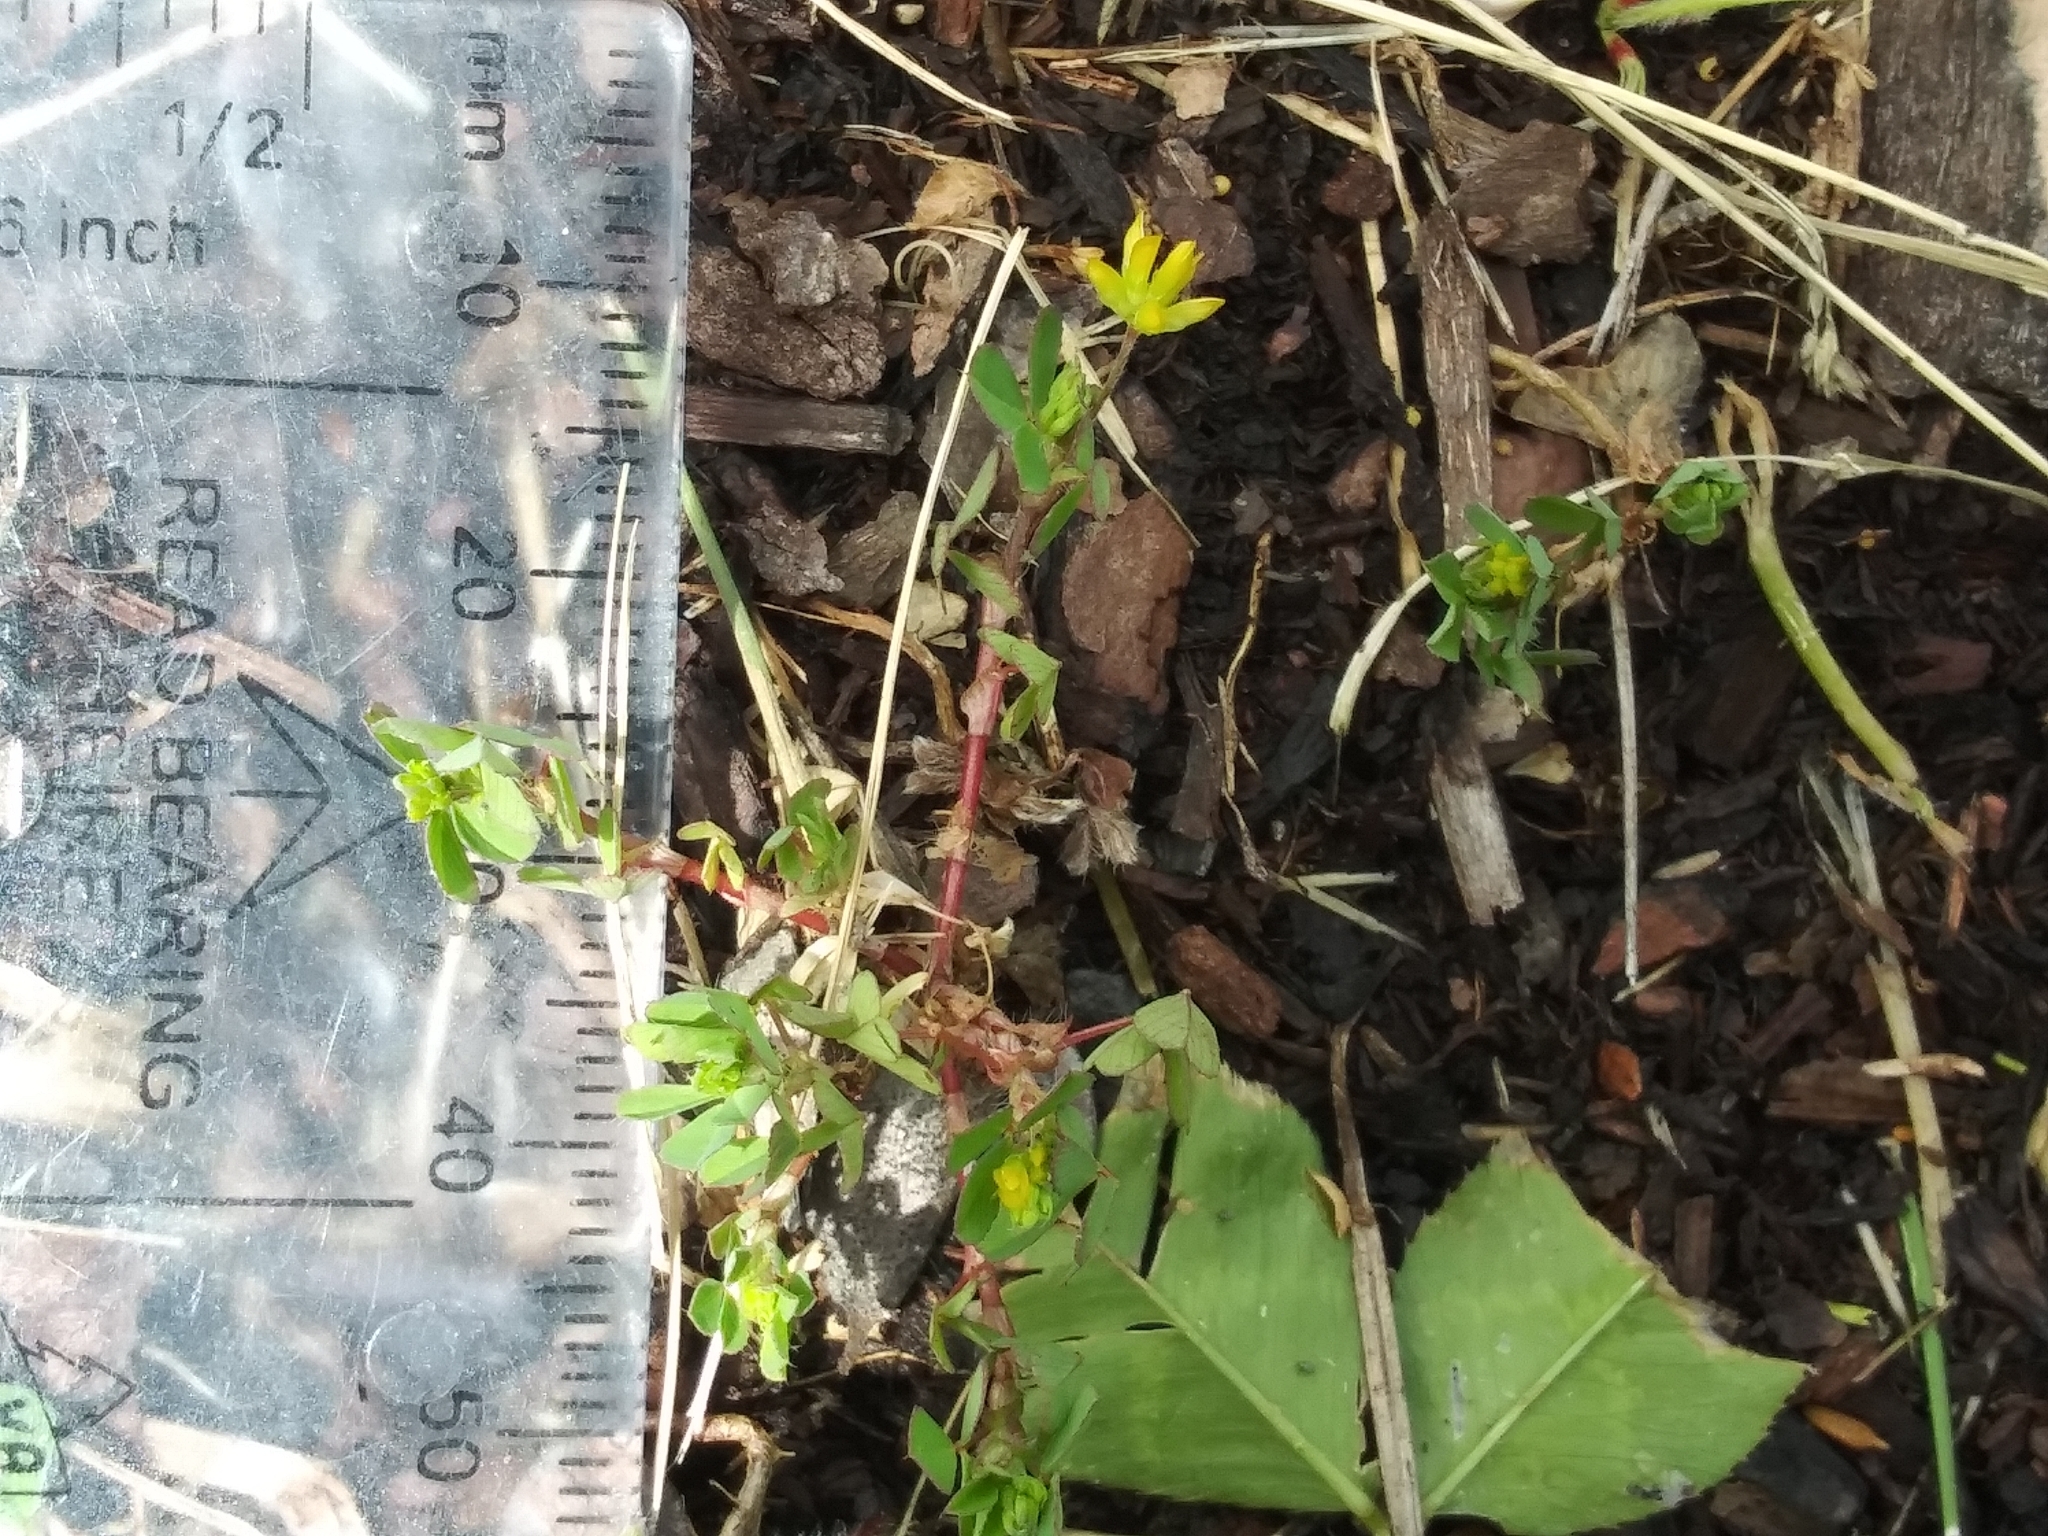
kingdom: Plantae
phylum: Tracheophyta
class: Magnoliopsida
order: Fabales
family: Fabaceae
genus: Trifolium
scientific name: Trifolium dubium
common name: Suckling clover
